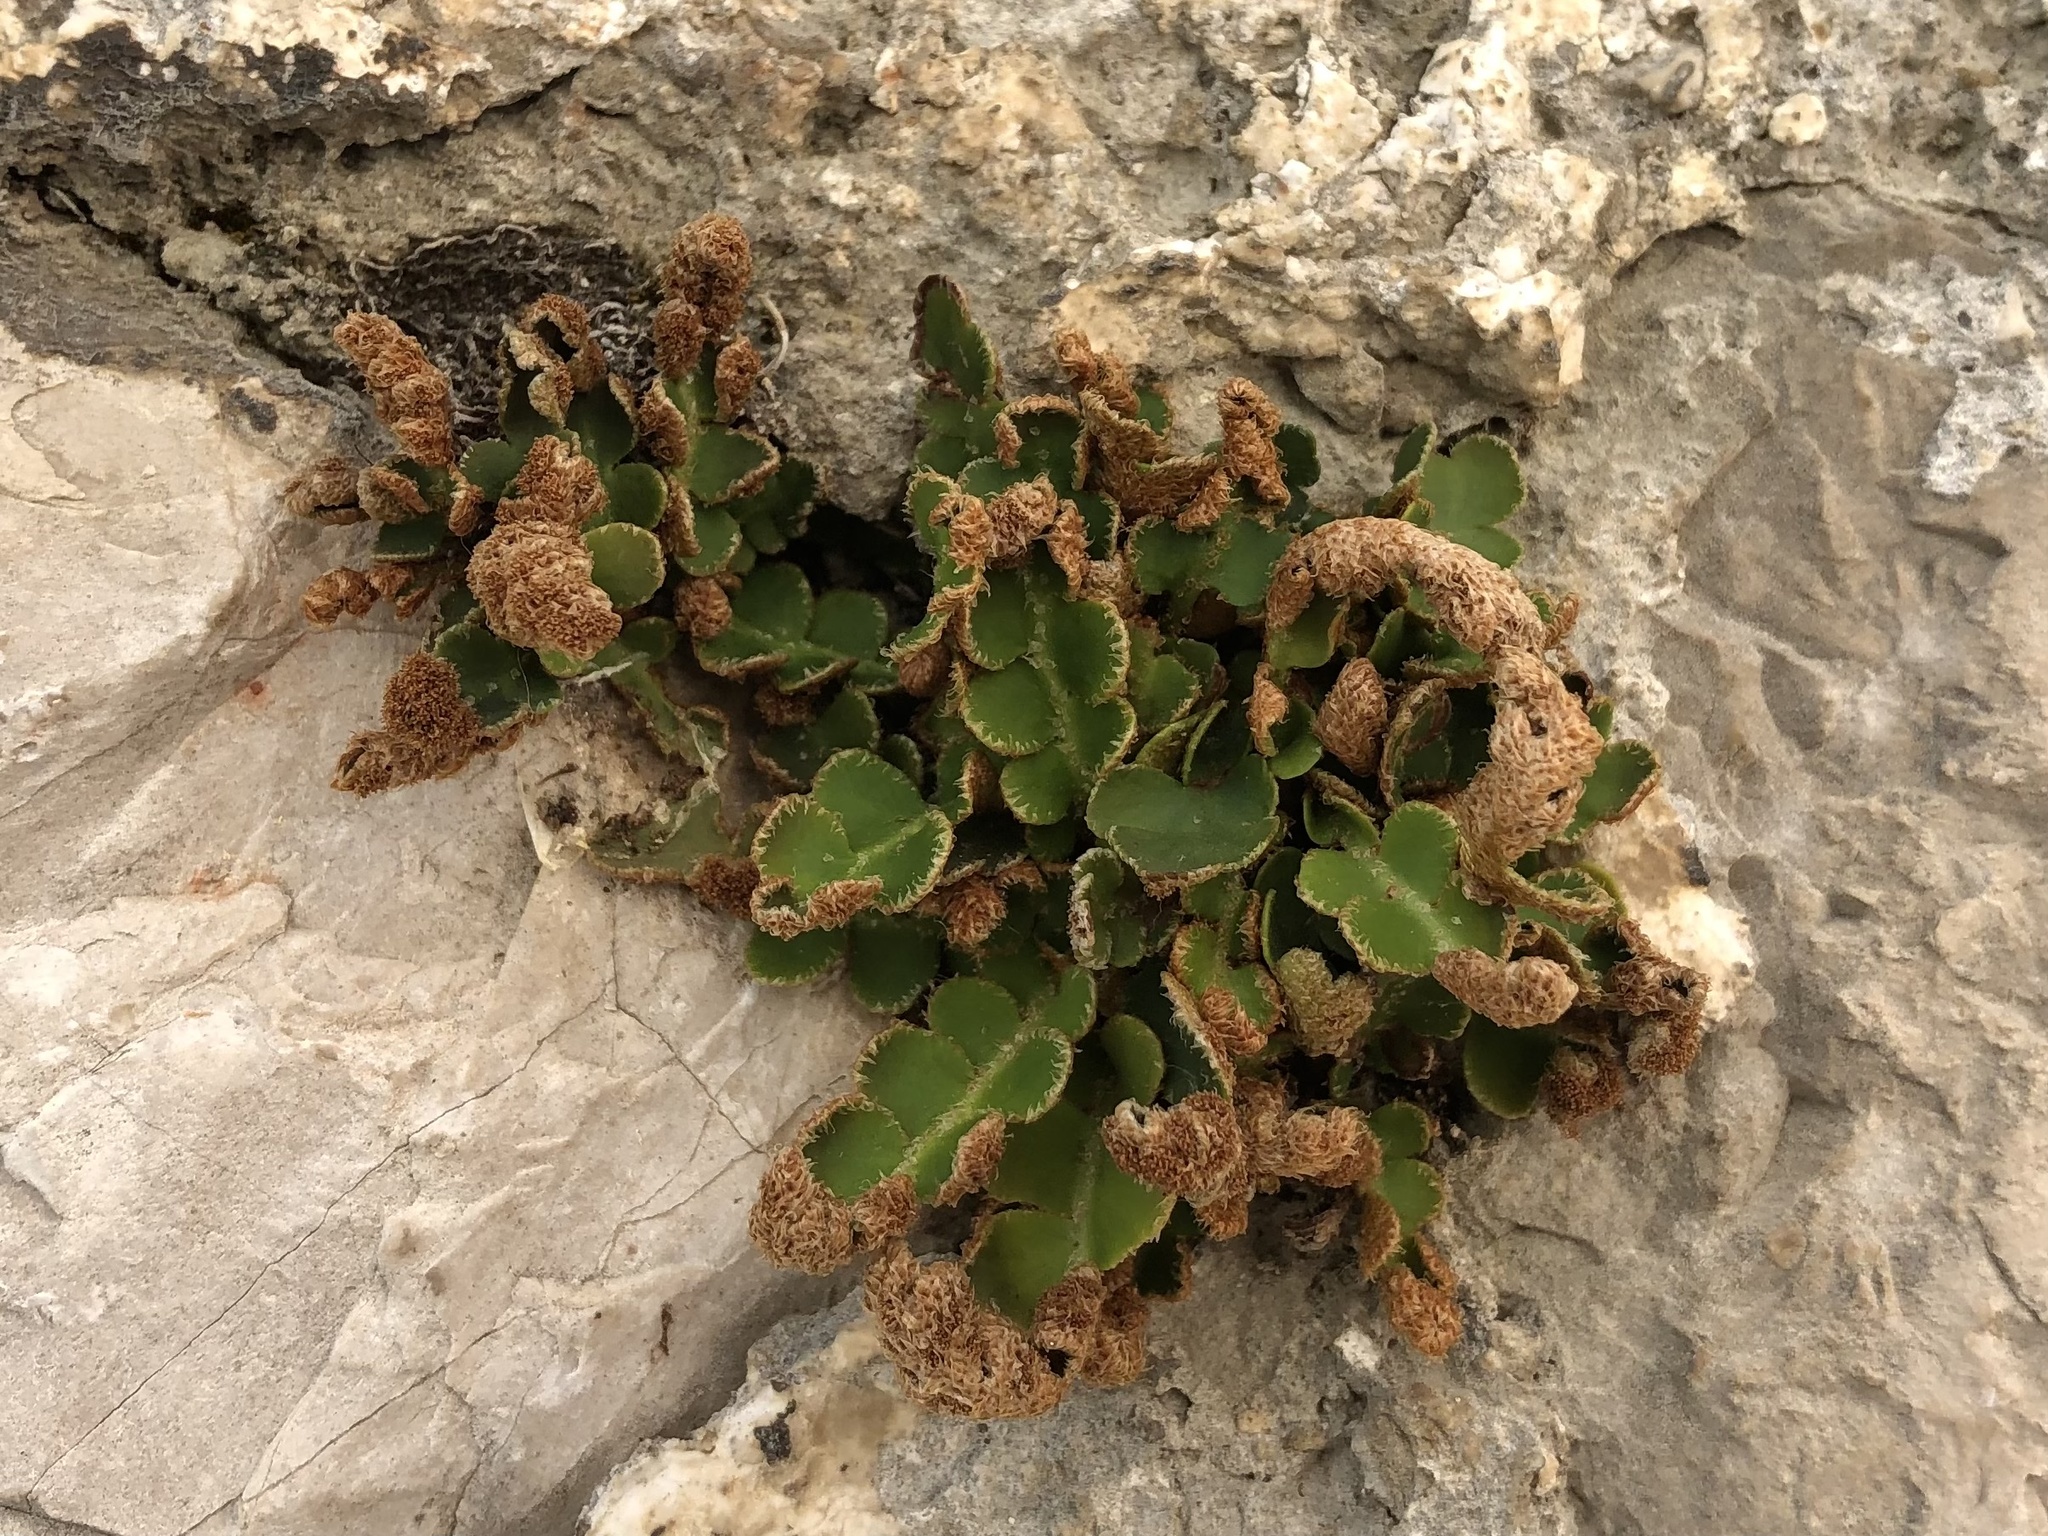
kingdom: Plantae
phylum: Tracheophyta
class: Polypodiopsida
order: Polypodiales
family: Aspleniaceae
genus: Asplenium
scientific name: Asplenium ceterach
